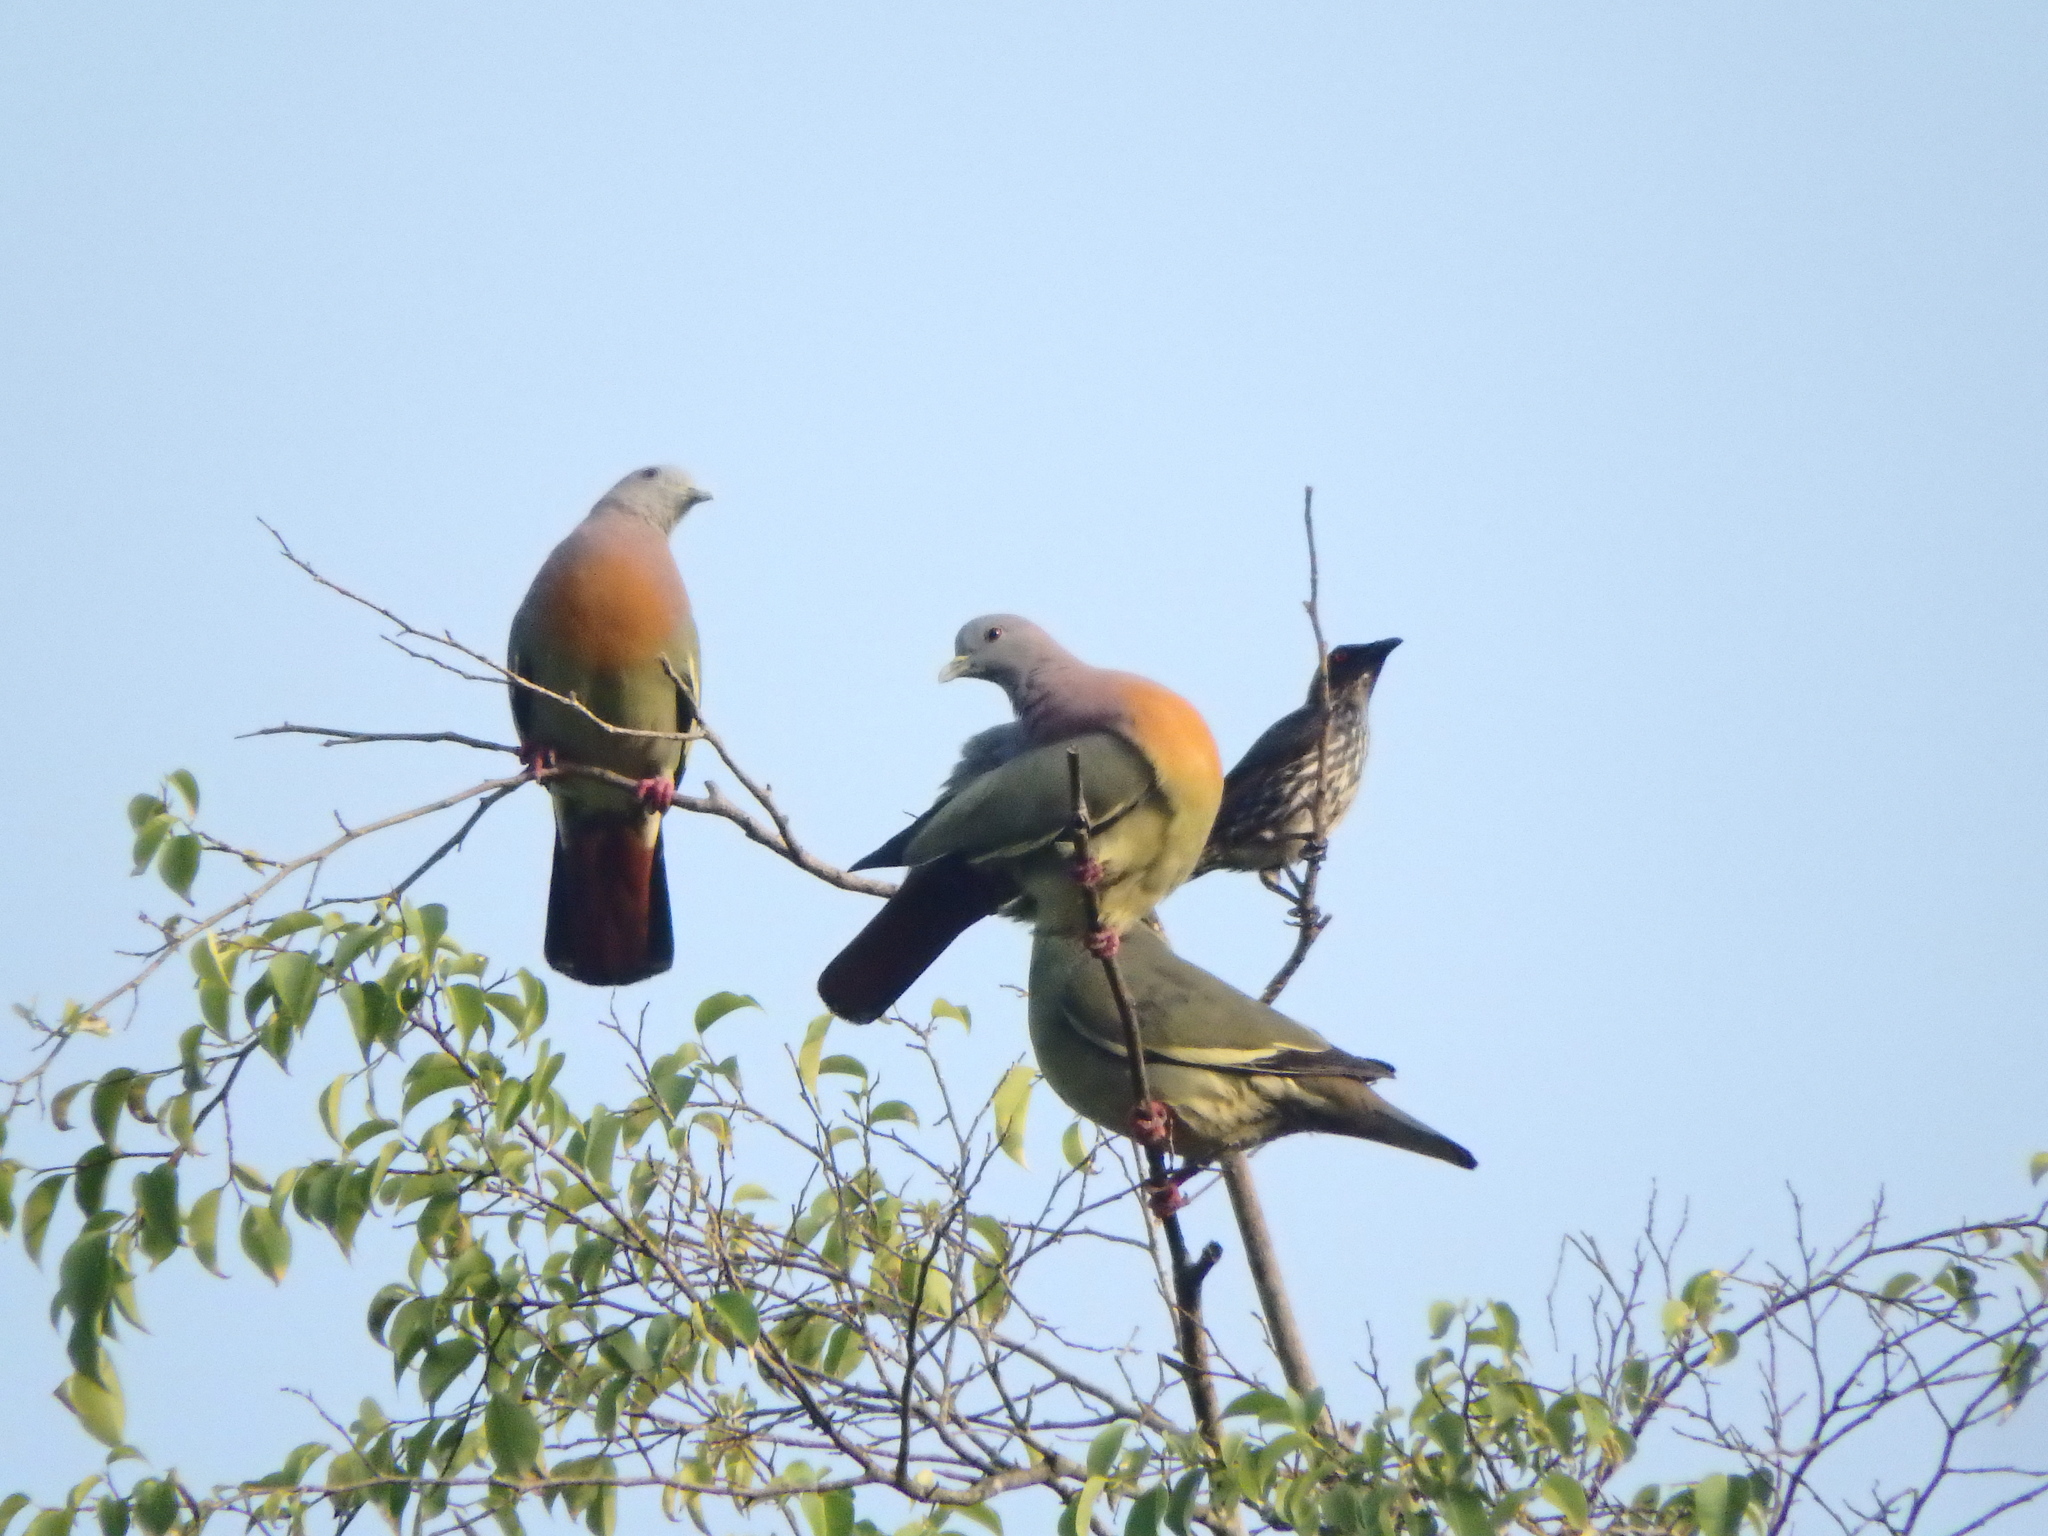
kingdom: Animalia
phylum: Chordata
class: Aves
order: Columbiformes
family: Columbidae
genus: Treron
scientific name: Treron vernans
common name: Pink-necked green pigeon
